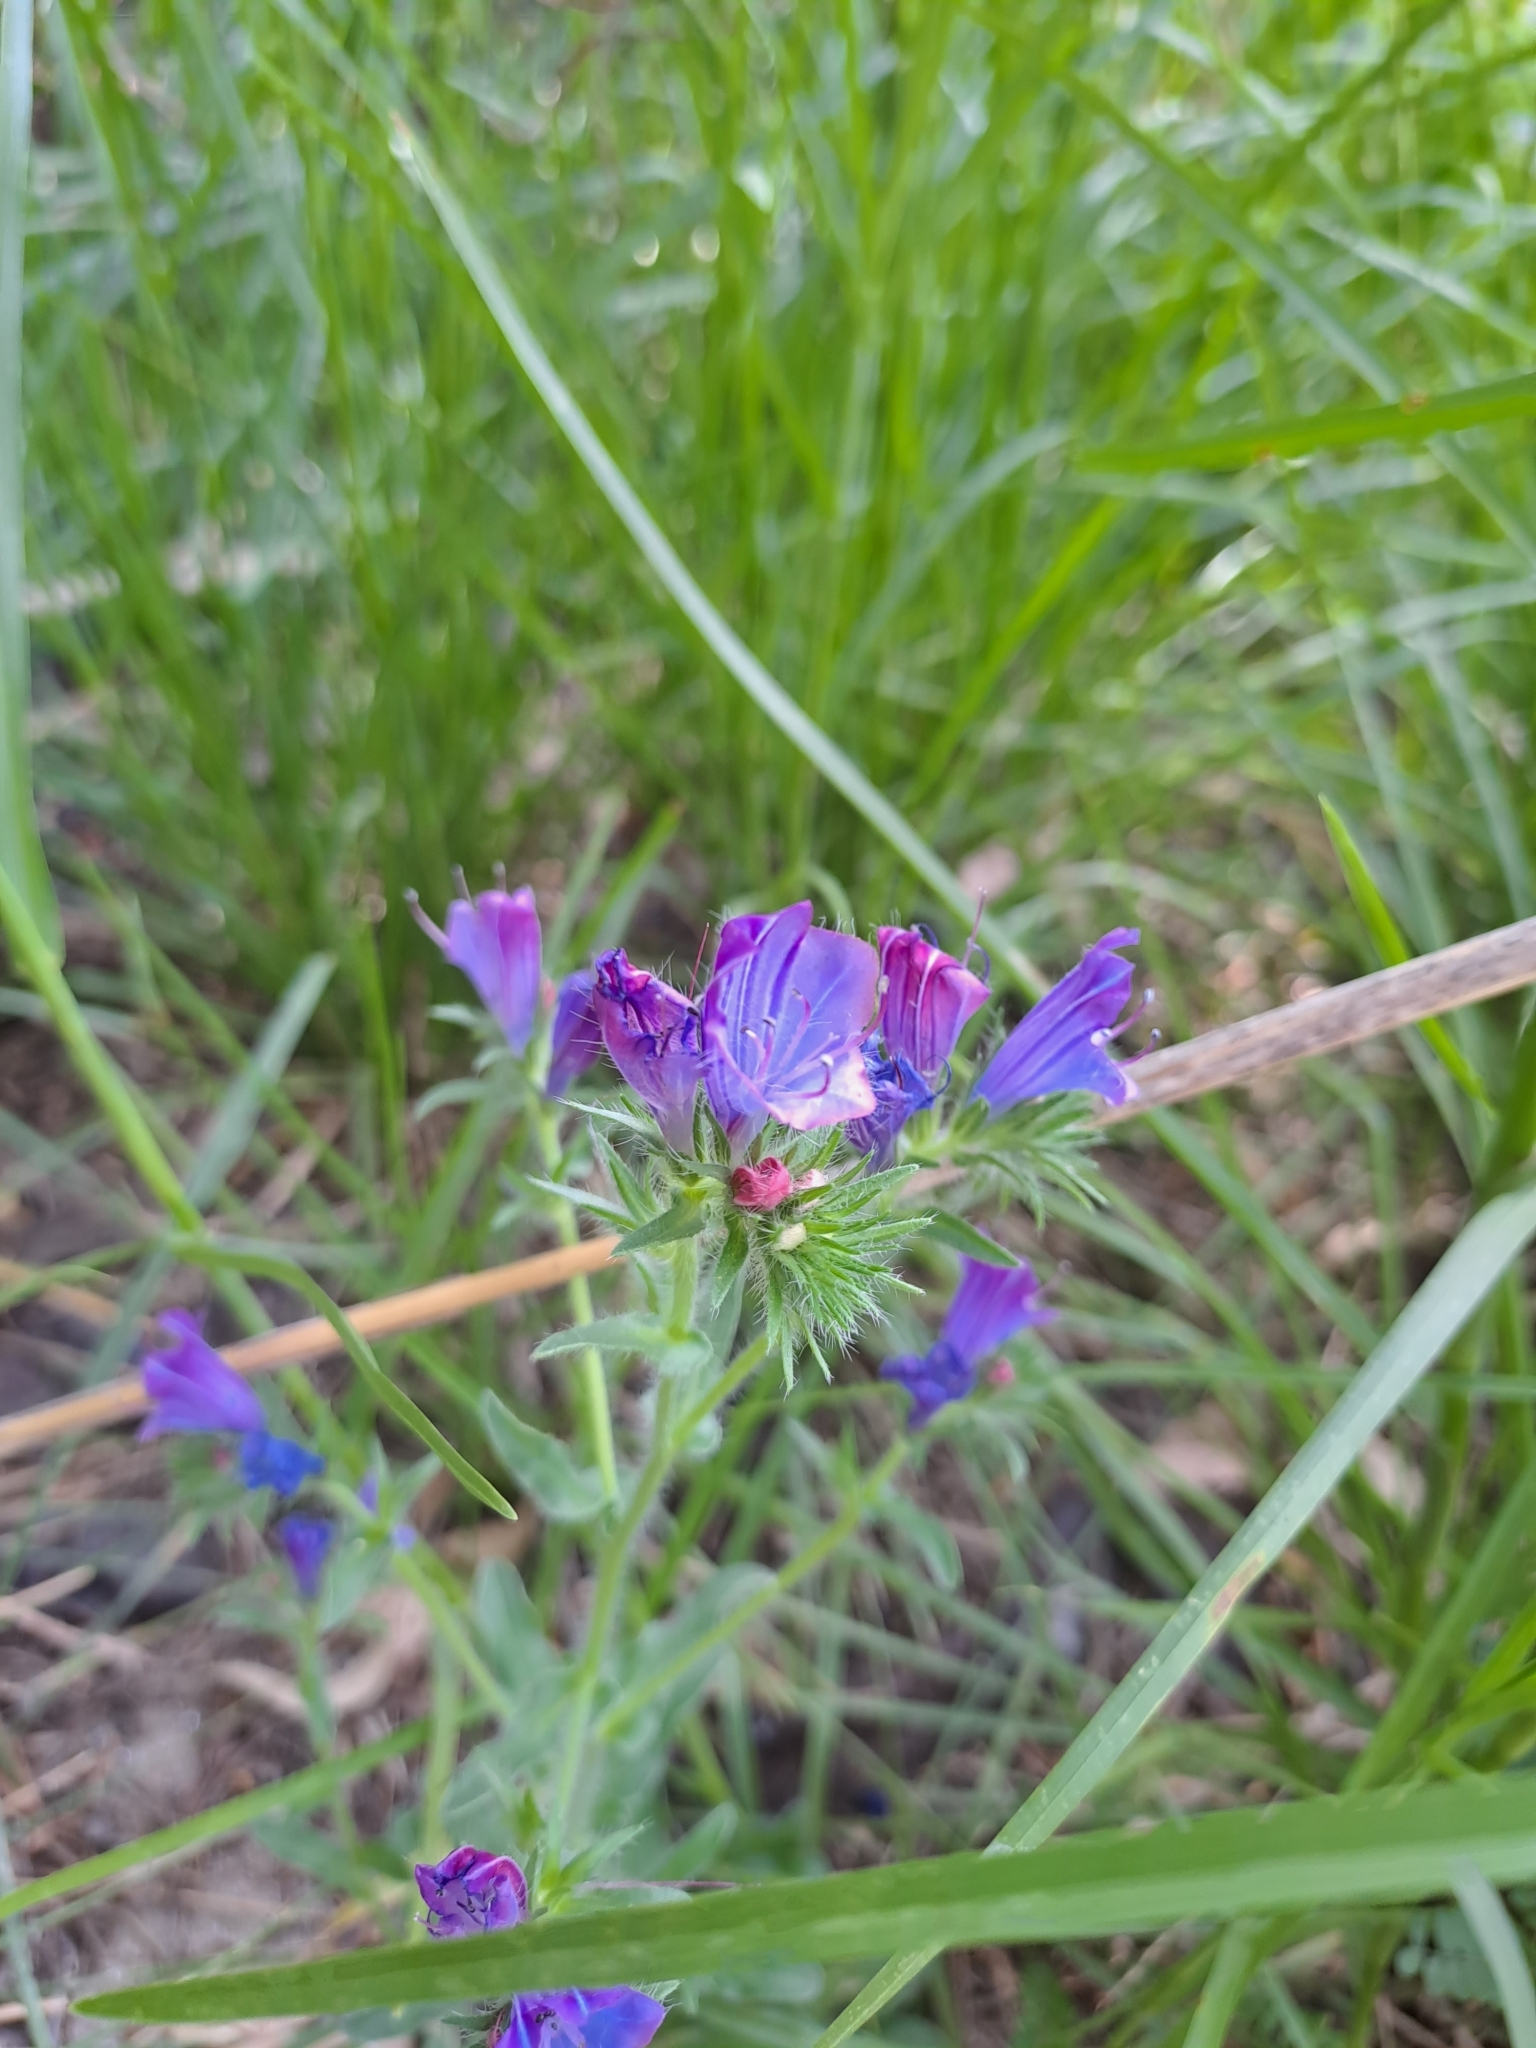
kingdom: Plantae
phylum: Tracheophyta
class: Magnoliopsida
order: Boraginales
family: Boraginaceae
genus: Echium
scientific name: Echium plantagineum
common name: Purple viper's-bugloss
